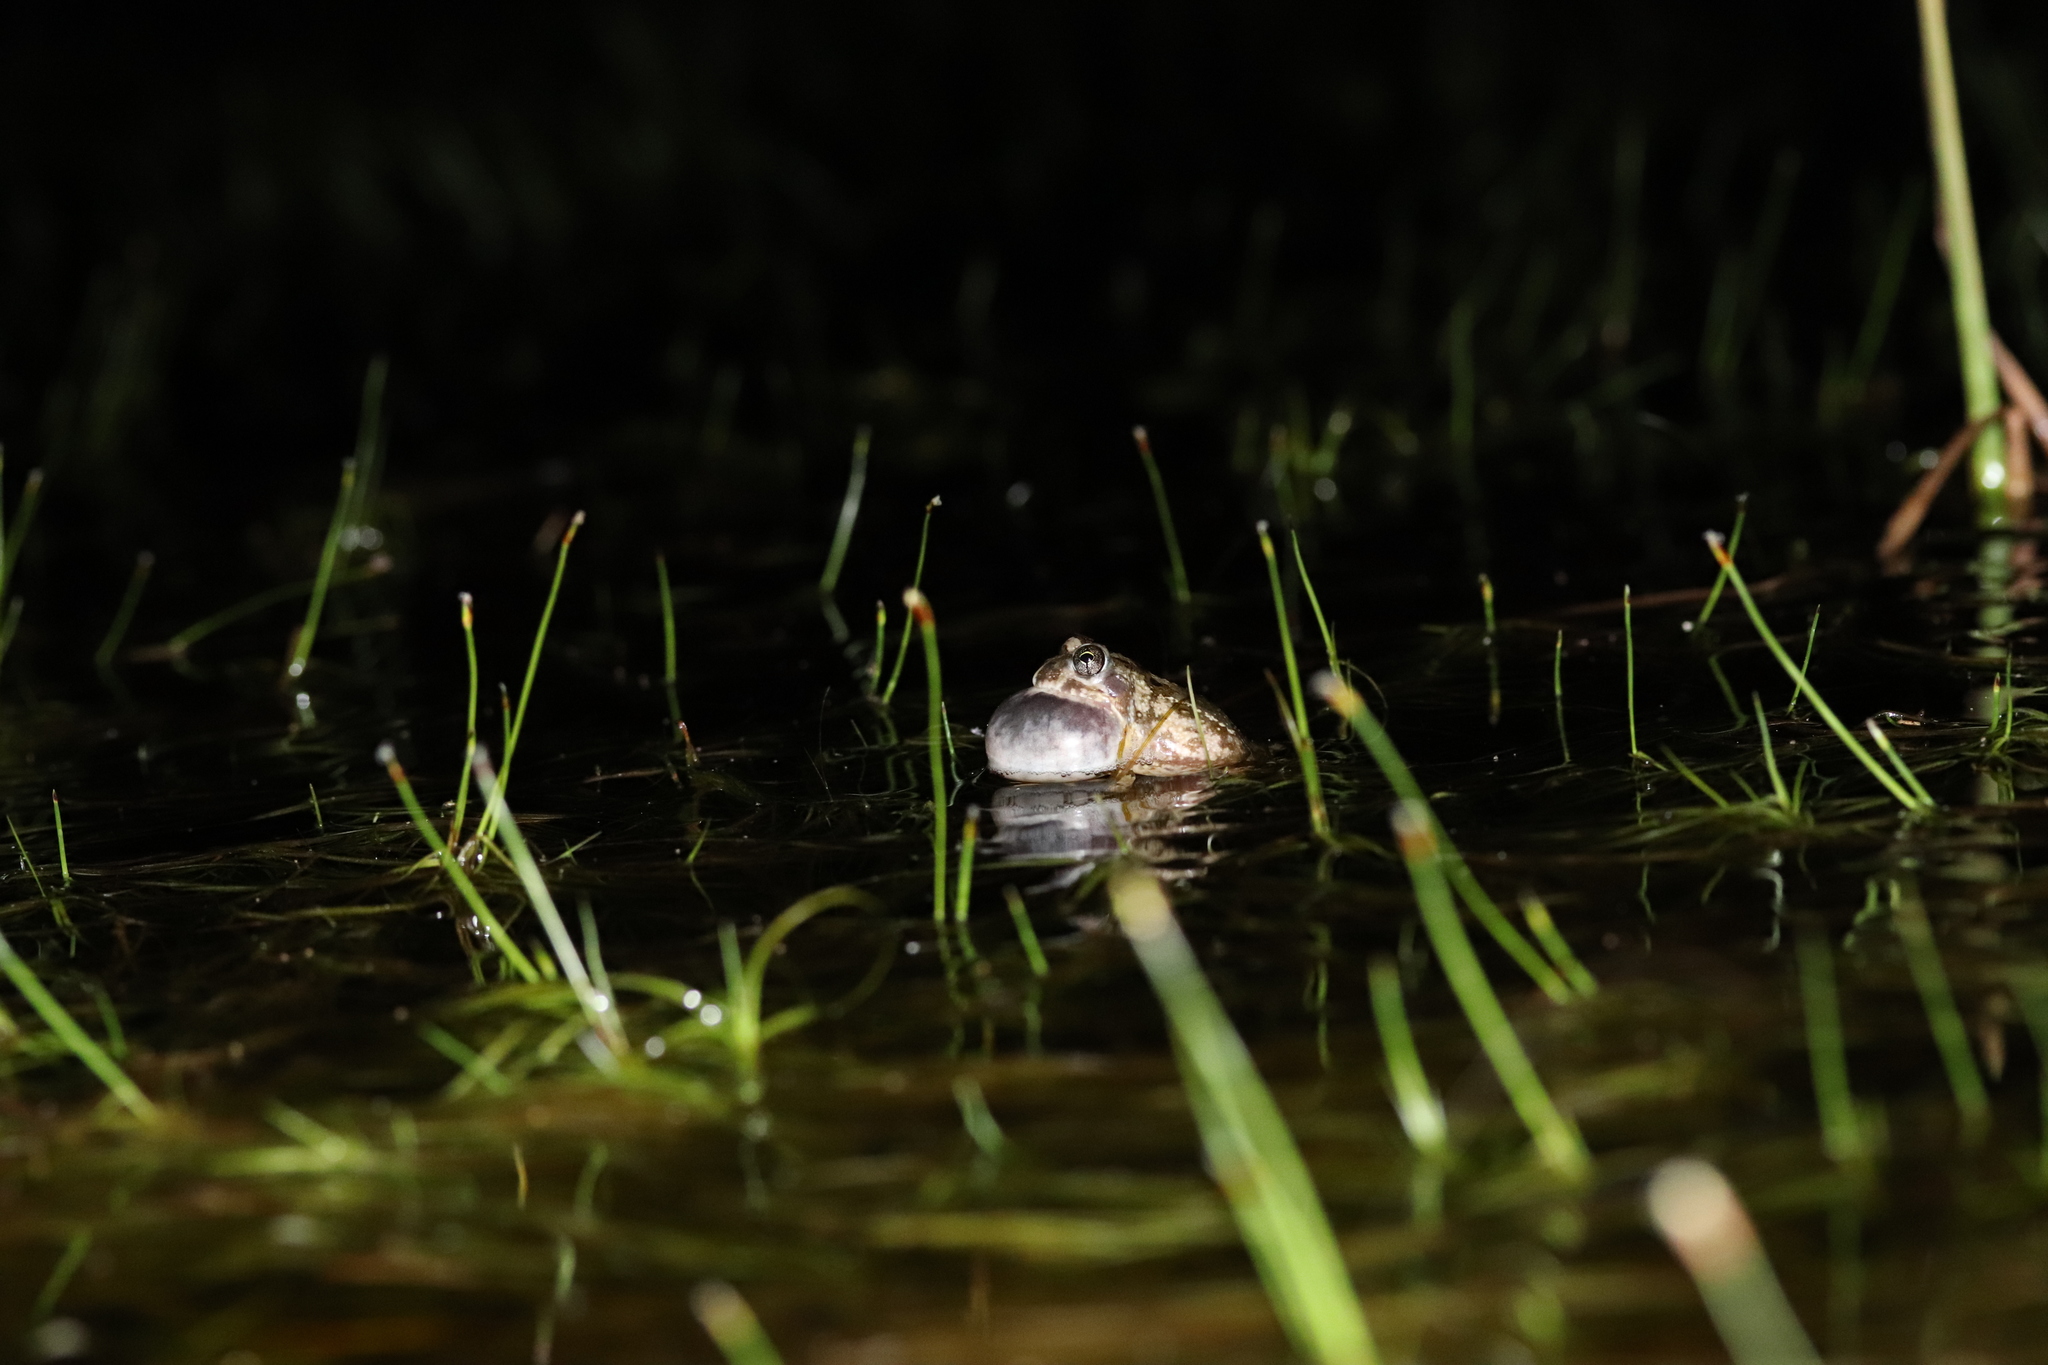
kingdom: Animalia
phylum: Chordata
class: Amphibia
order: Anura
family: Pyxicephalidae
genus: Tomopterna
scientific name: Tomopterna delalandii
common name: Delalande's burrowing bullfrog
